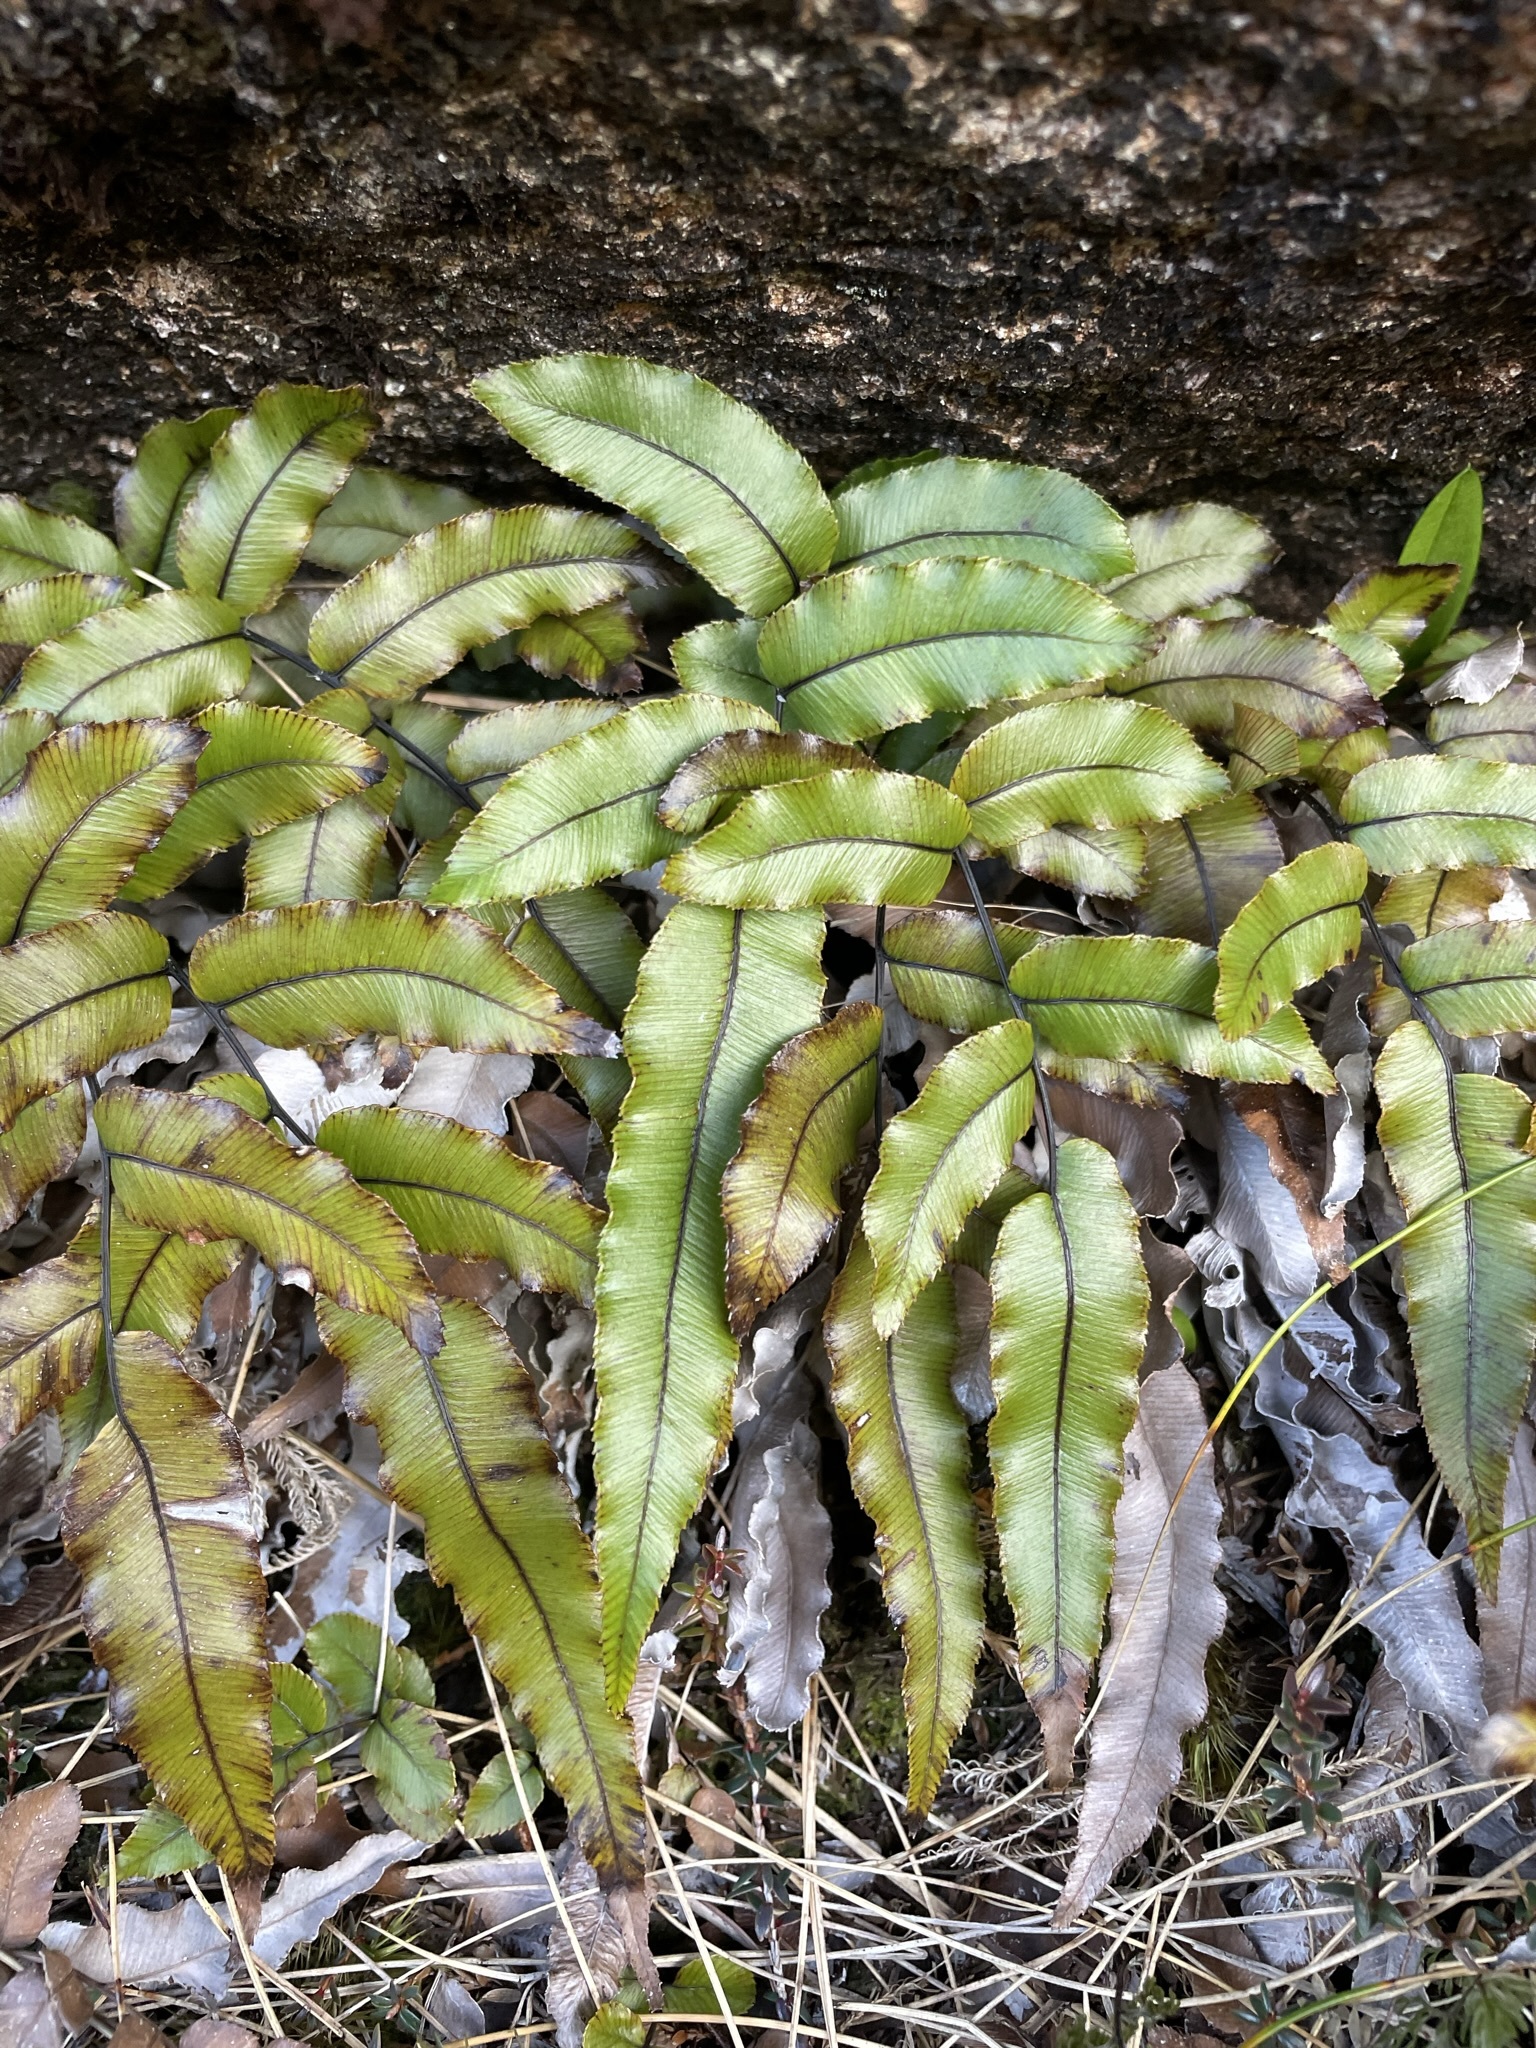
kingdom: Plantae
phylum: Tracheophyta
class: Polypodiopsida
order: Polypodiales
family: Blechnaceae
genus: Parablechnum
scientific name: Parablechnum montanum
